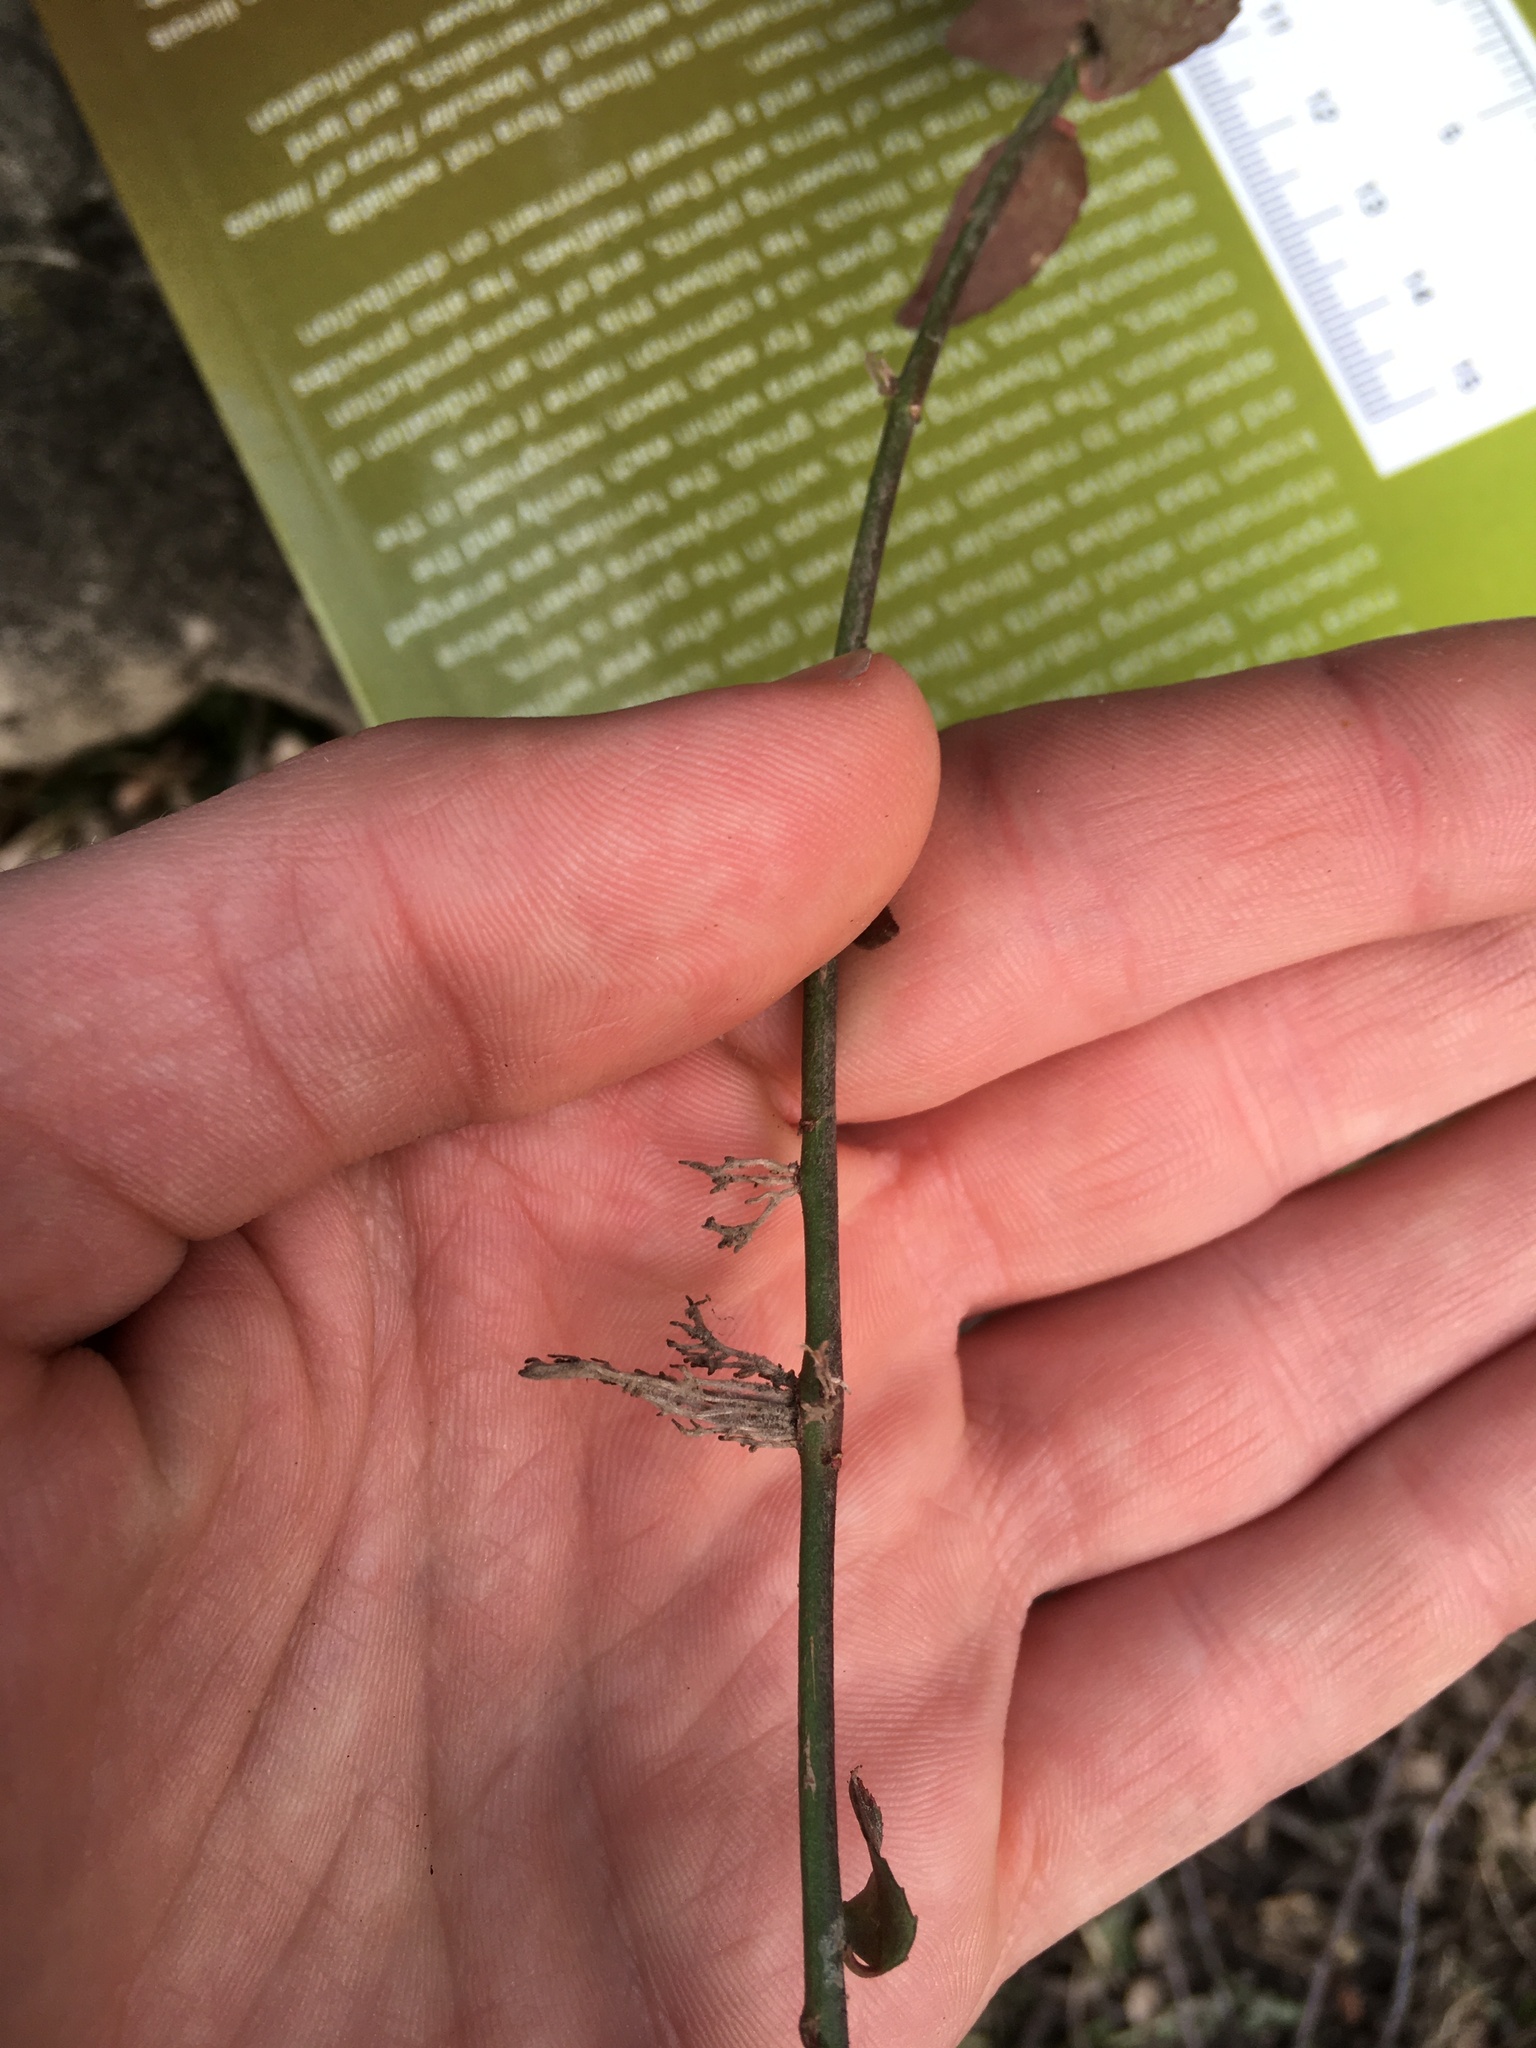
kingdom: Plantae
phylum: Tracheophyta
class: Magnoliopsida
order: Celastrales
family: Celastraceae
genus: Euonymus
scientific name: Euonymus fortunei
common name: Climbing euonymus
